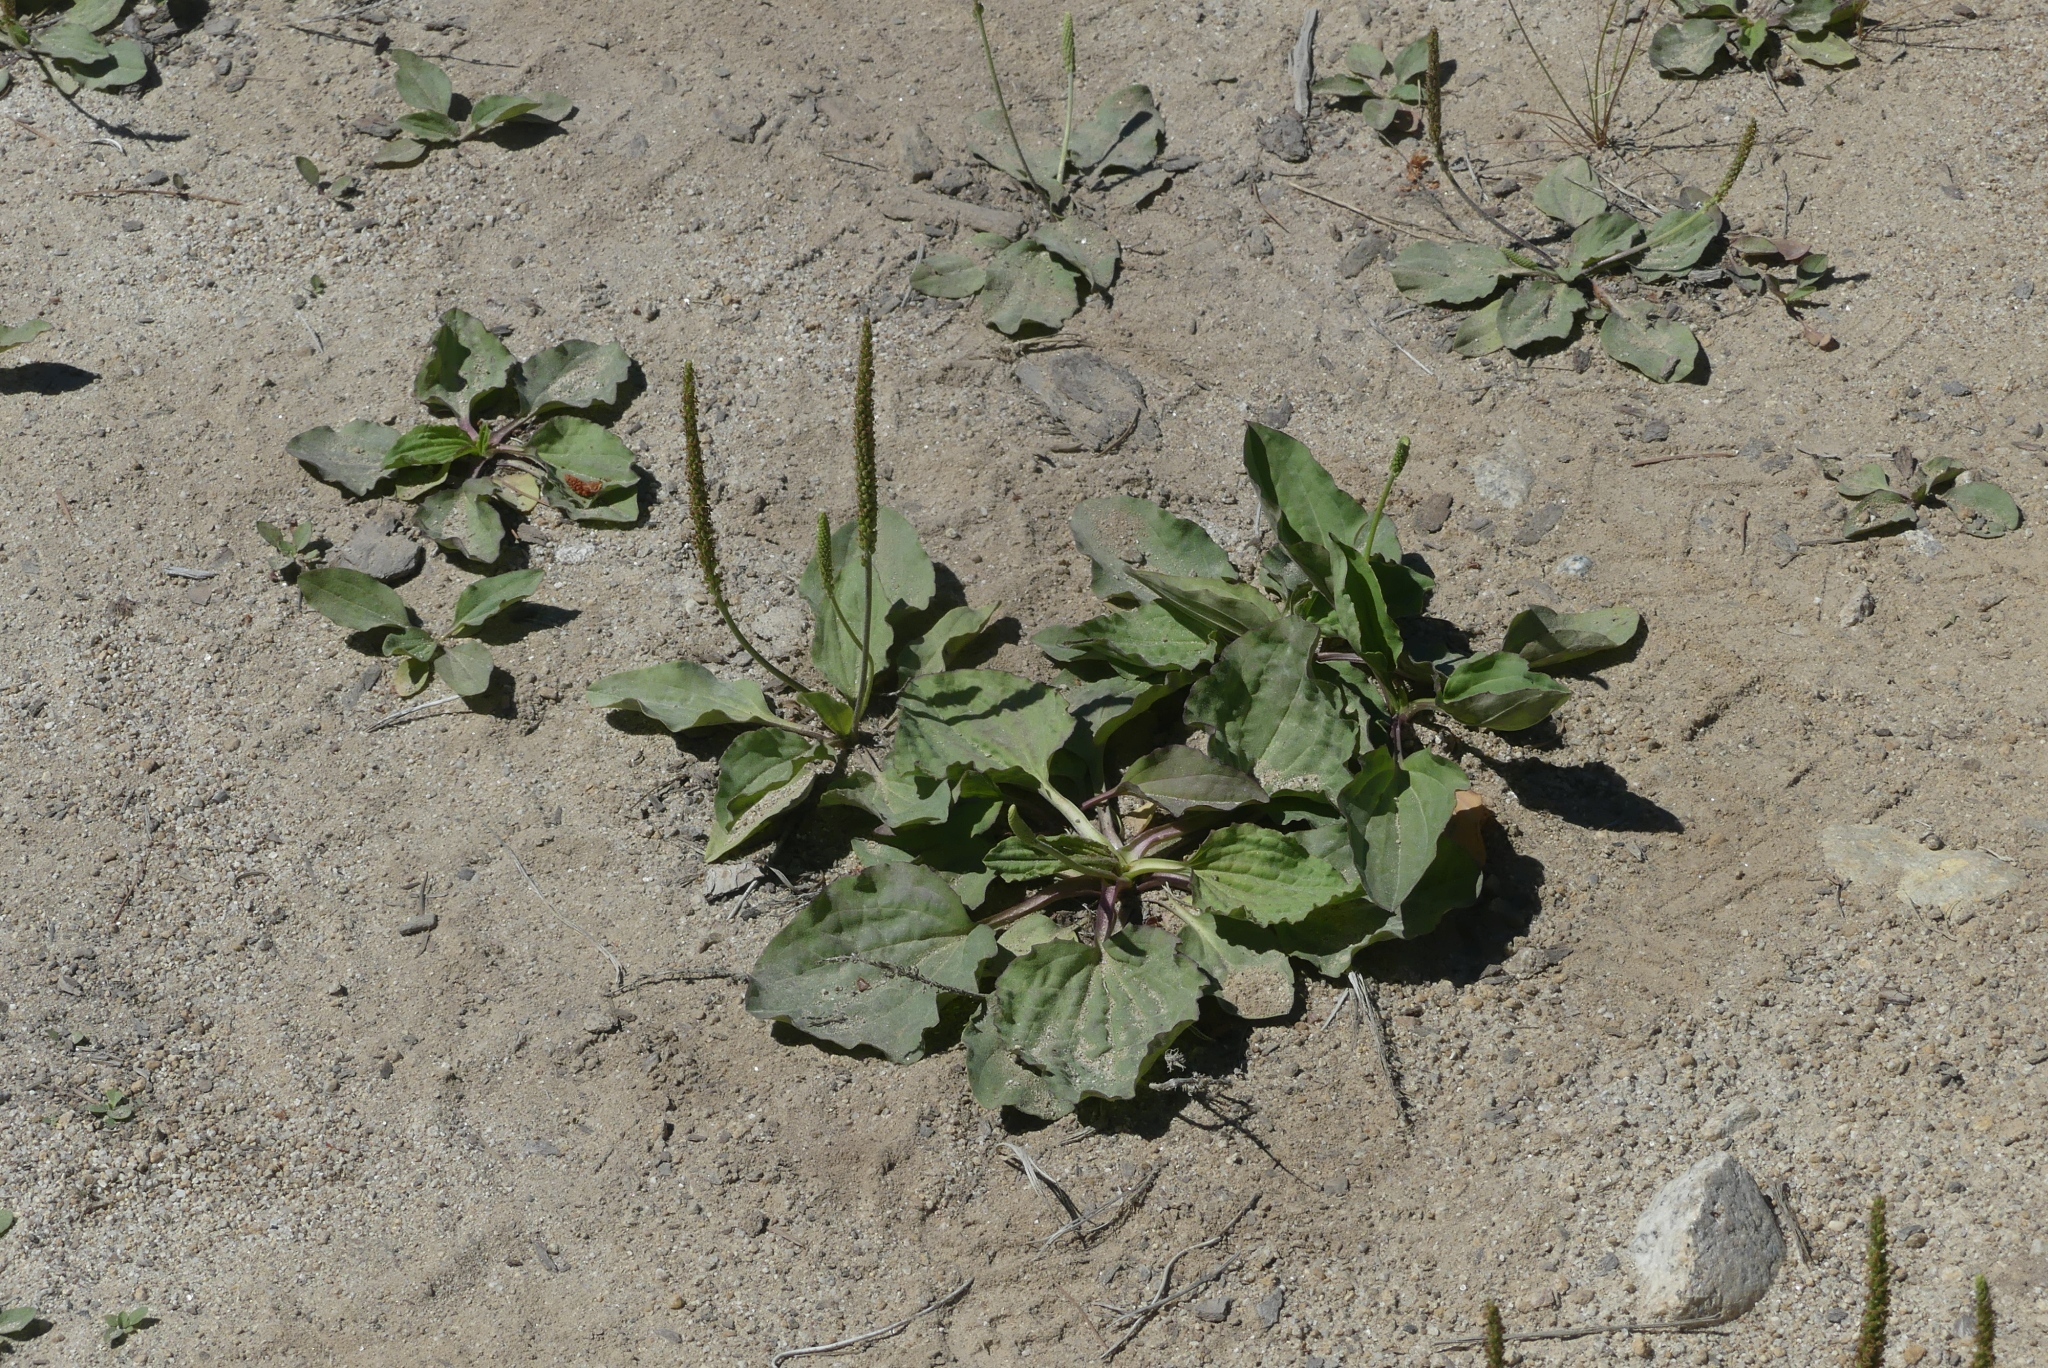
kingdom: Plantae
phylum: Tracheophyta
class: Magnoliopsida
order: Lamiales
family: Plantaginaceae
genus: Plantago
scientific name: Plantago major
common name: Common plantain
